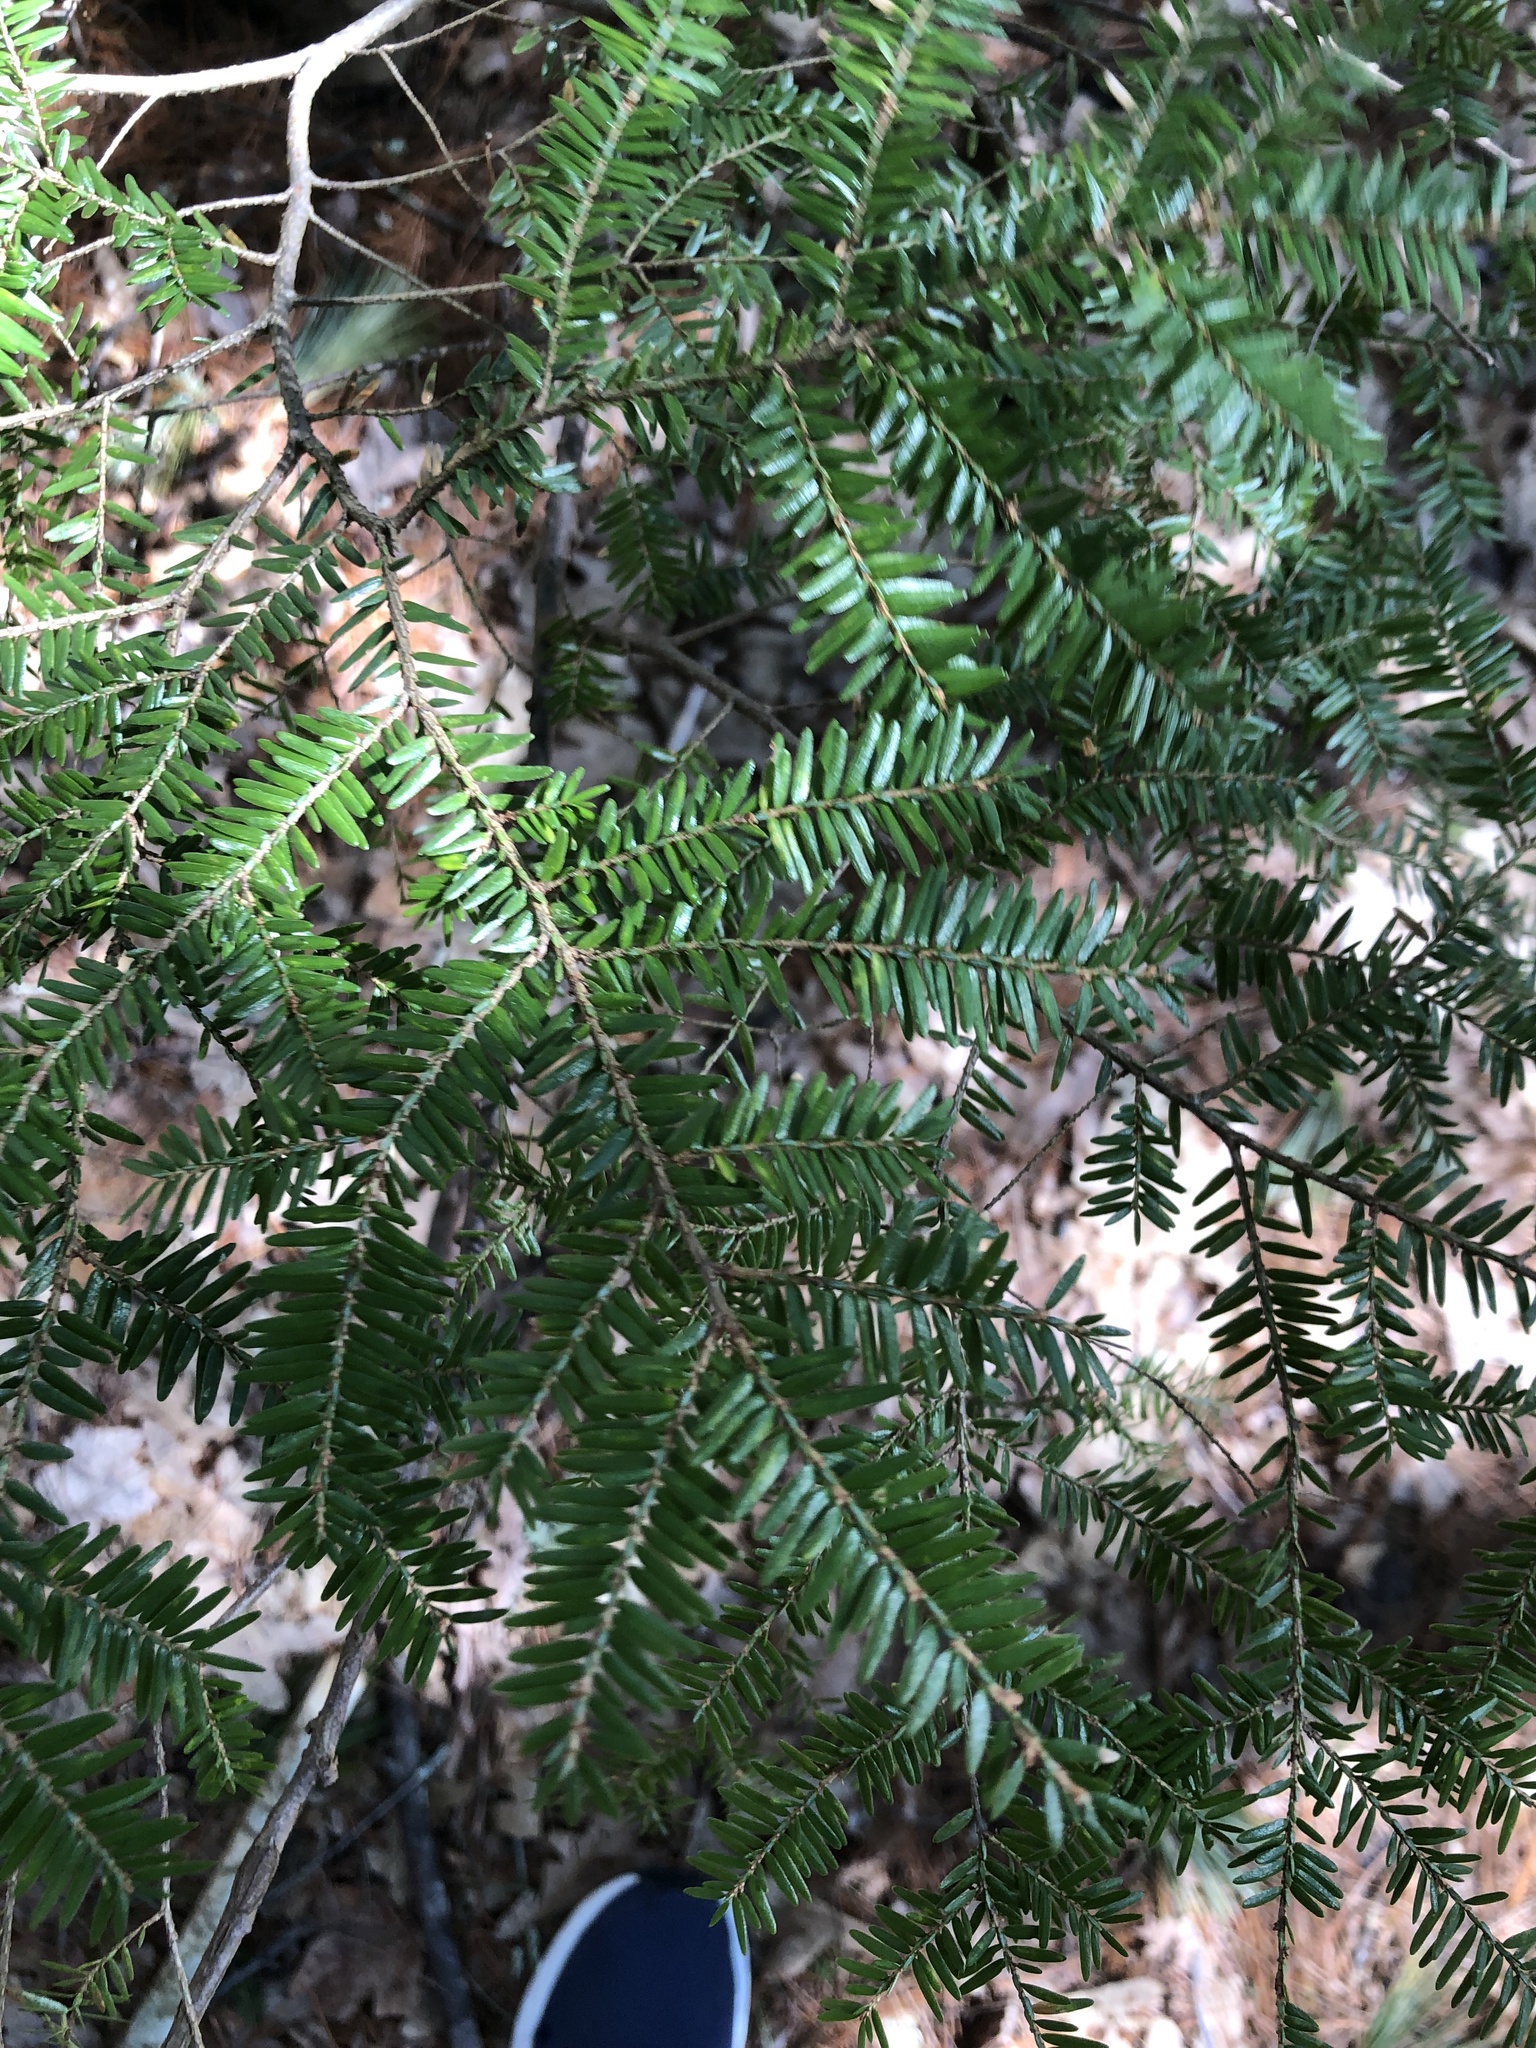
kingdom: Plantae
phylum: Tracheophyta
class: Pinopsida
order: Pinales
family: Pinaceae
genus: Tsuga
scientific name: Tsuga canadensis
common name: Eastern hemlock
